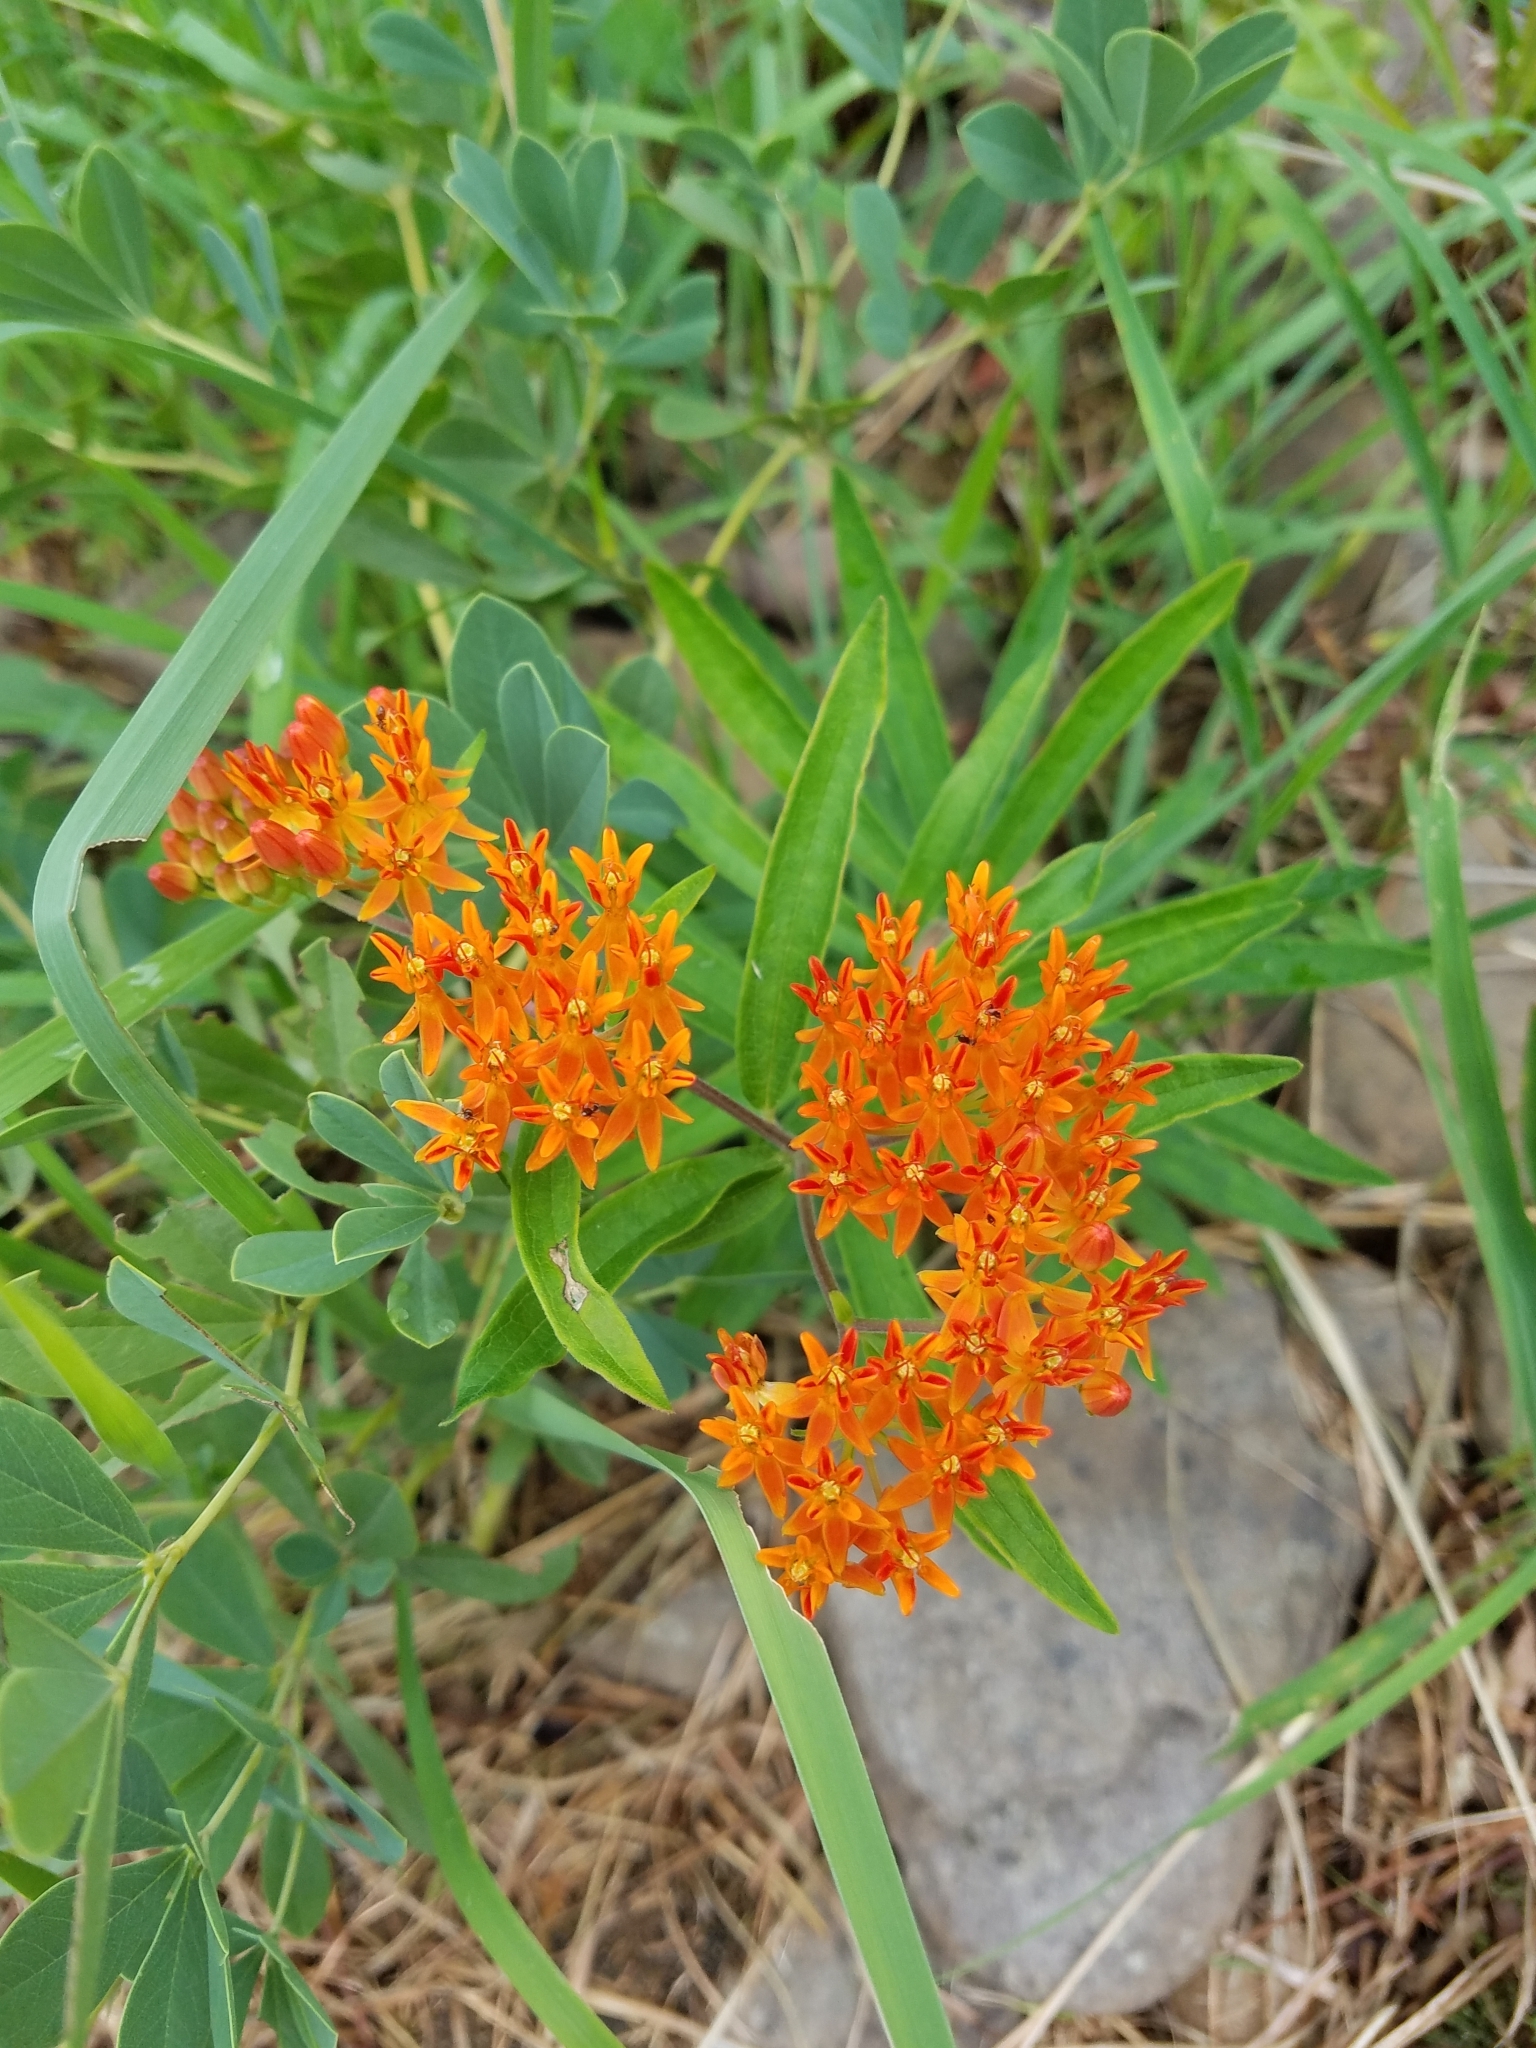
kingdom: Plantae
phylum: Tracheophyta
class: Magnoliopsida
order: Gentianales
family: Apocynaceae
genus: Asclepias
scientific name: Asclepias tuberosa
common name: Butterfly milkweed
